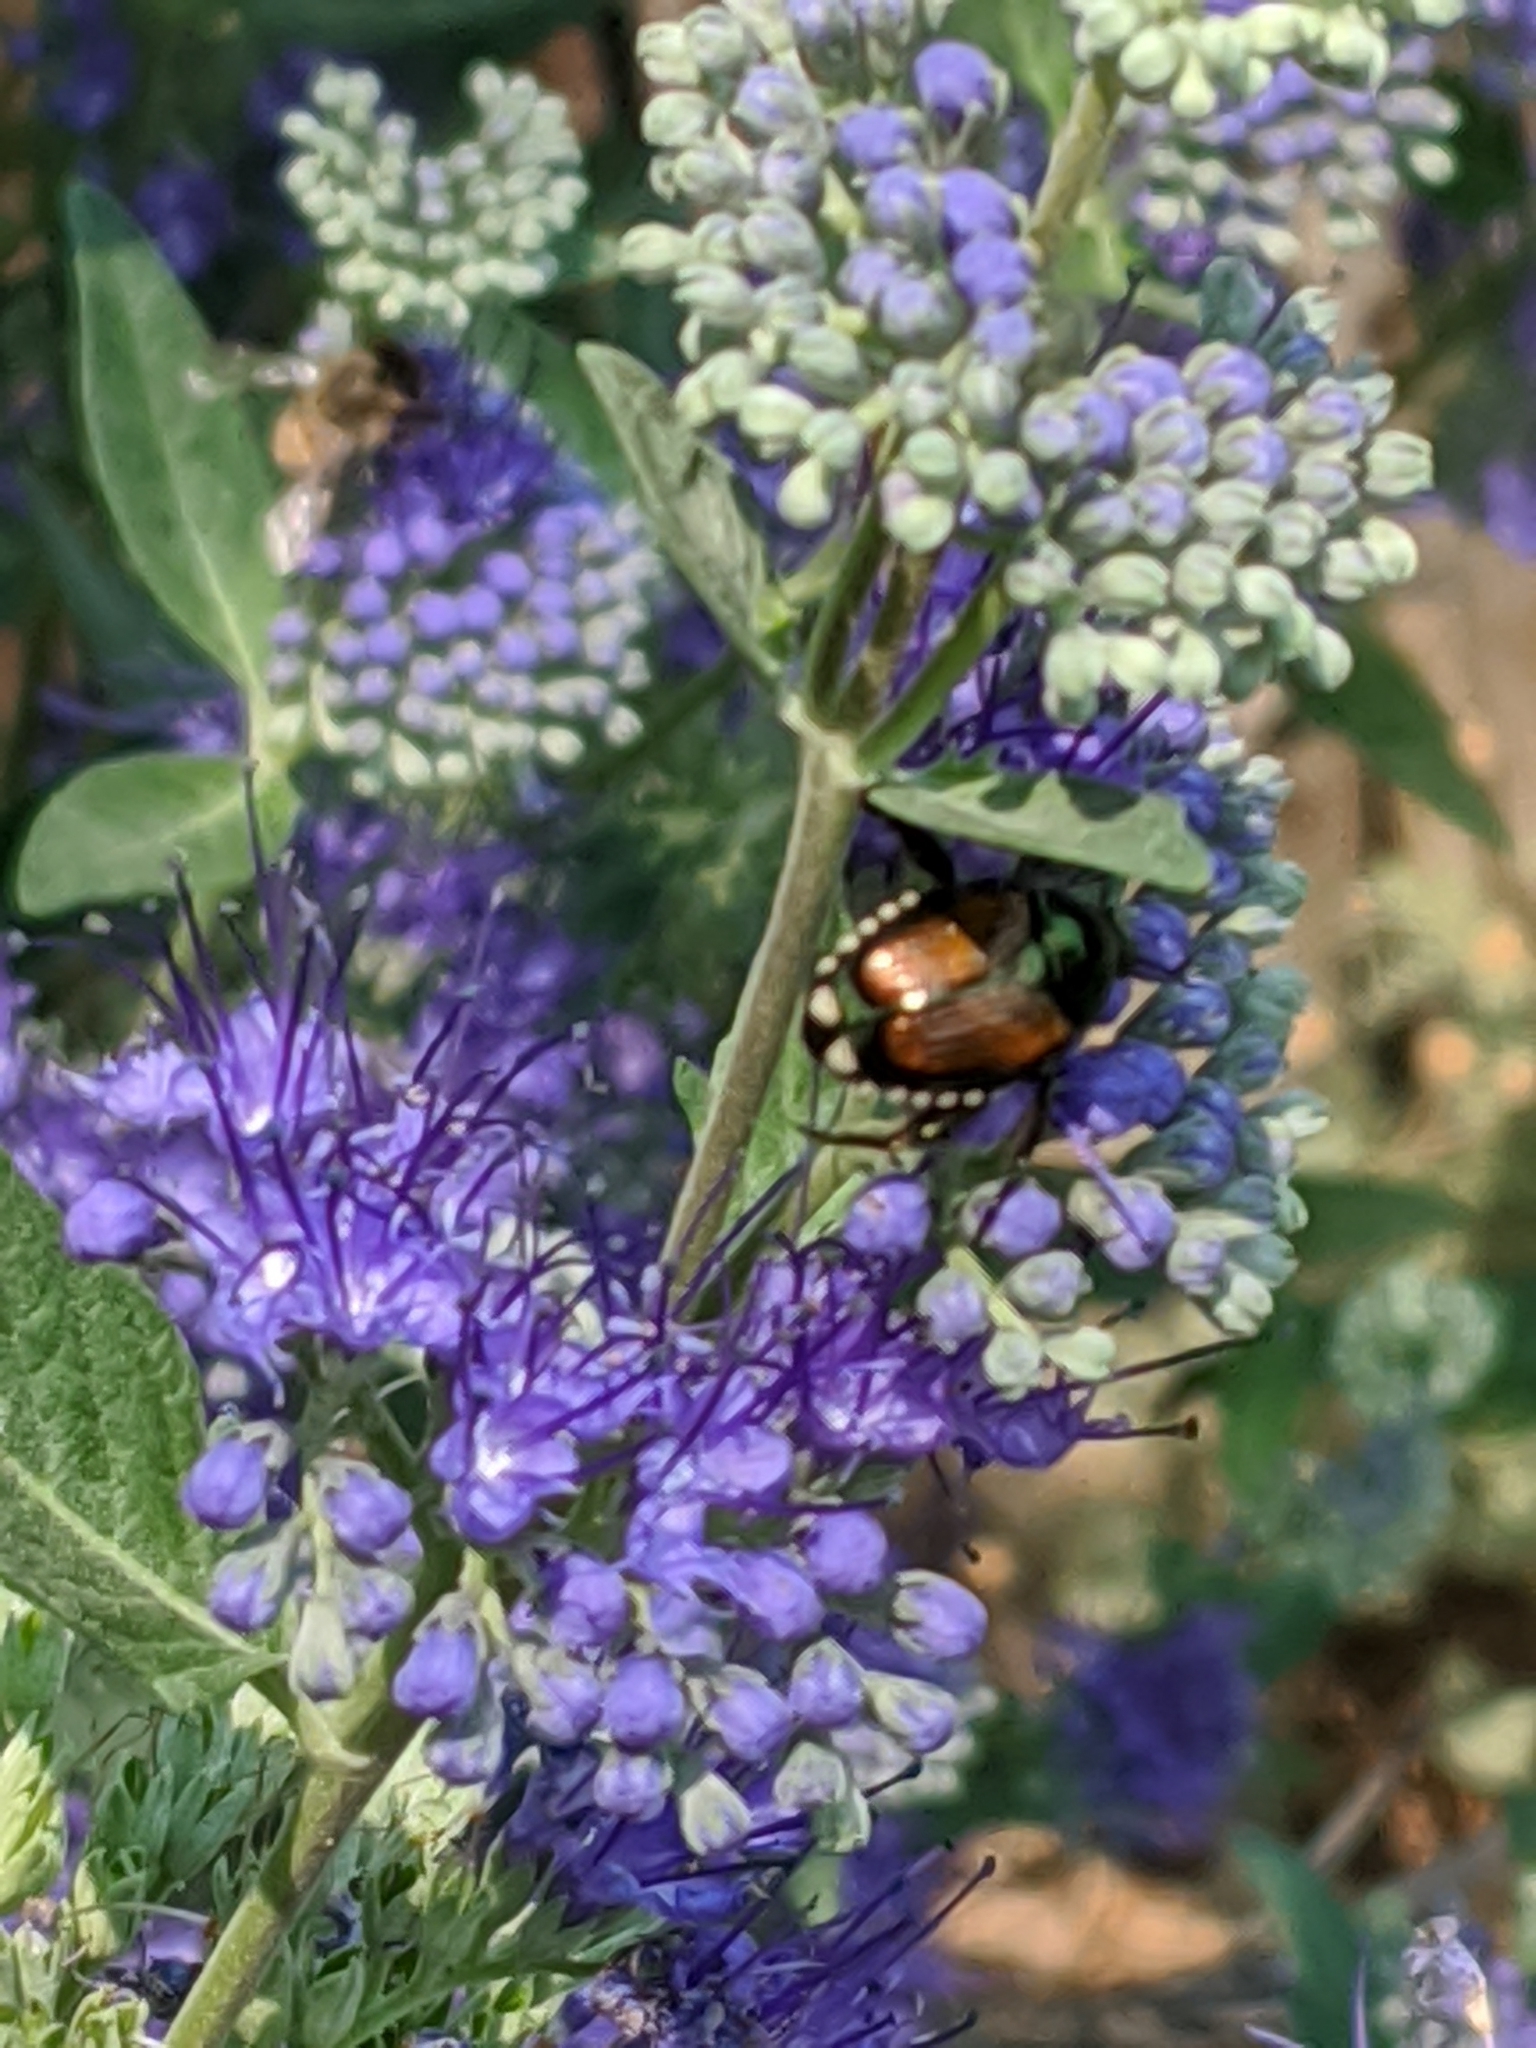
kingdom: Animalia
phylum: Arthropoda
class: Insecta
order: Coleoptera
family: Scarabaeidae
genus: Popillia
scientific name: Popillia japonica
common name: Japanese beetle
